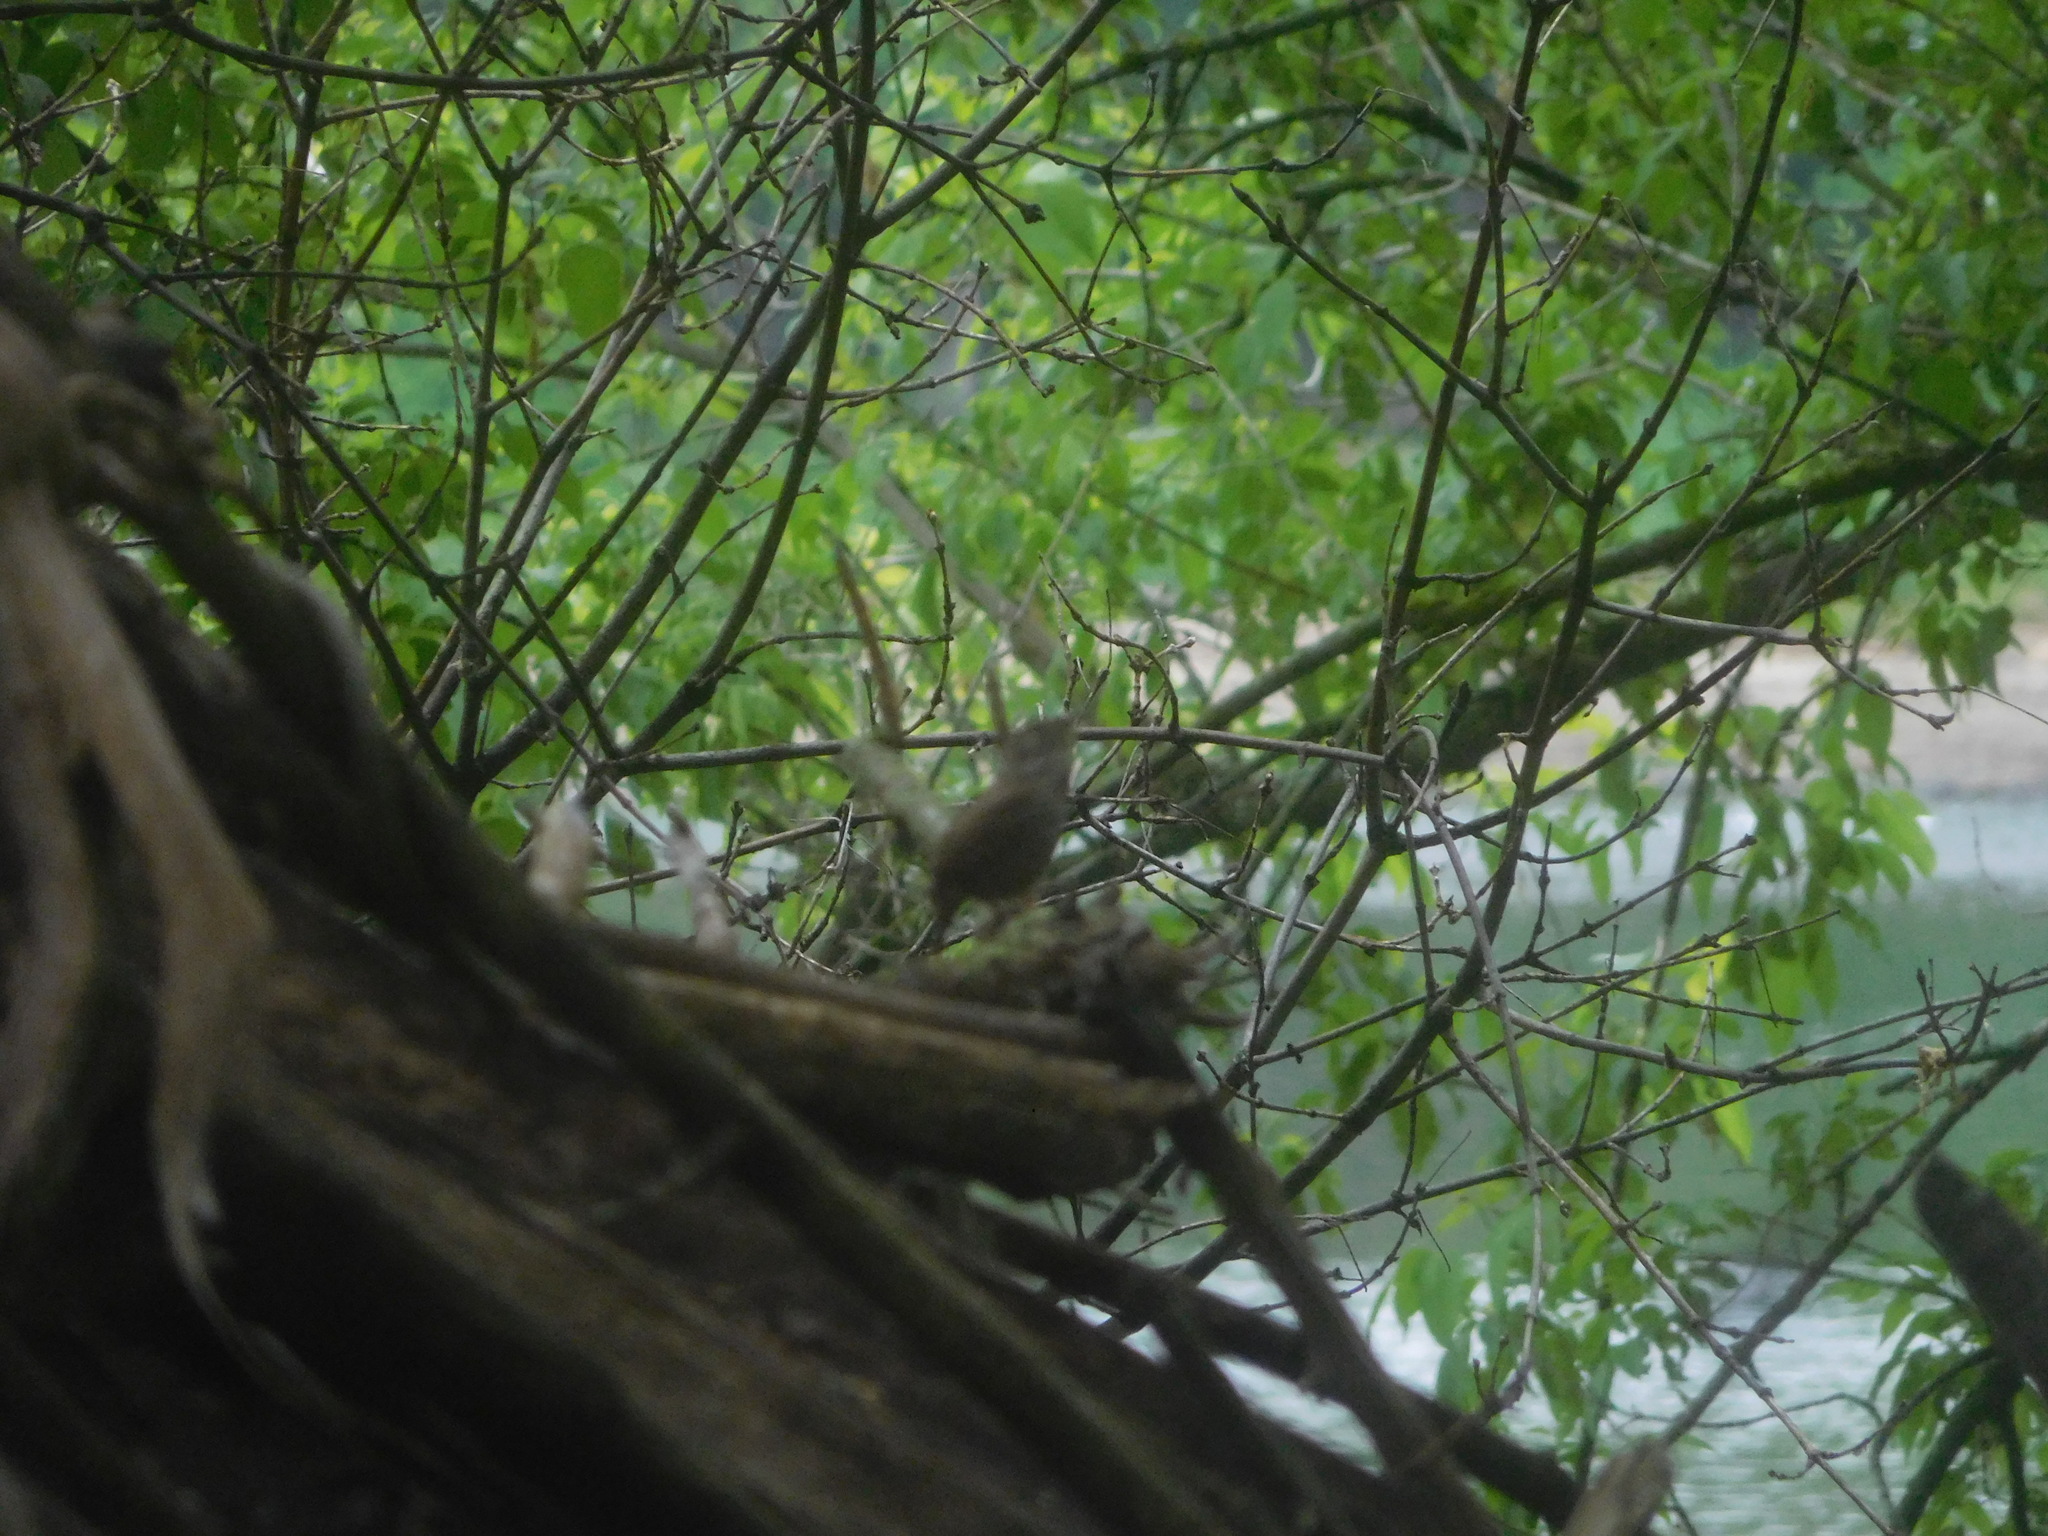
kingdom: Animalia
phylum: Chordata
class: Aves
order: Passeriformes
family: Troglodytidae
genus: Troglodytes
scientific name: Troglodytes aedon
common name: House wren
